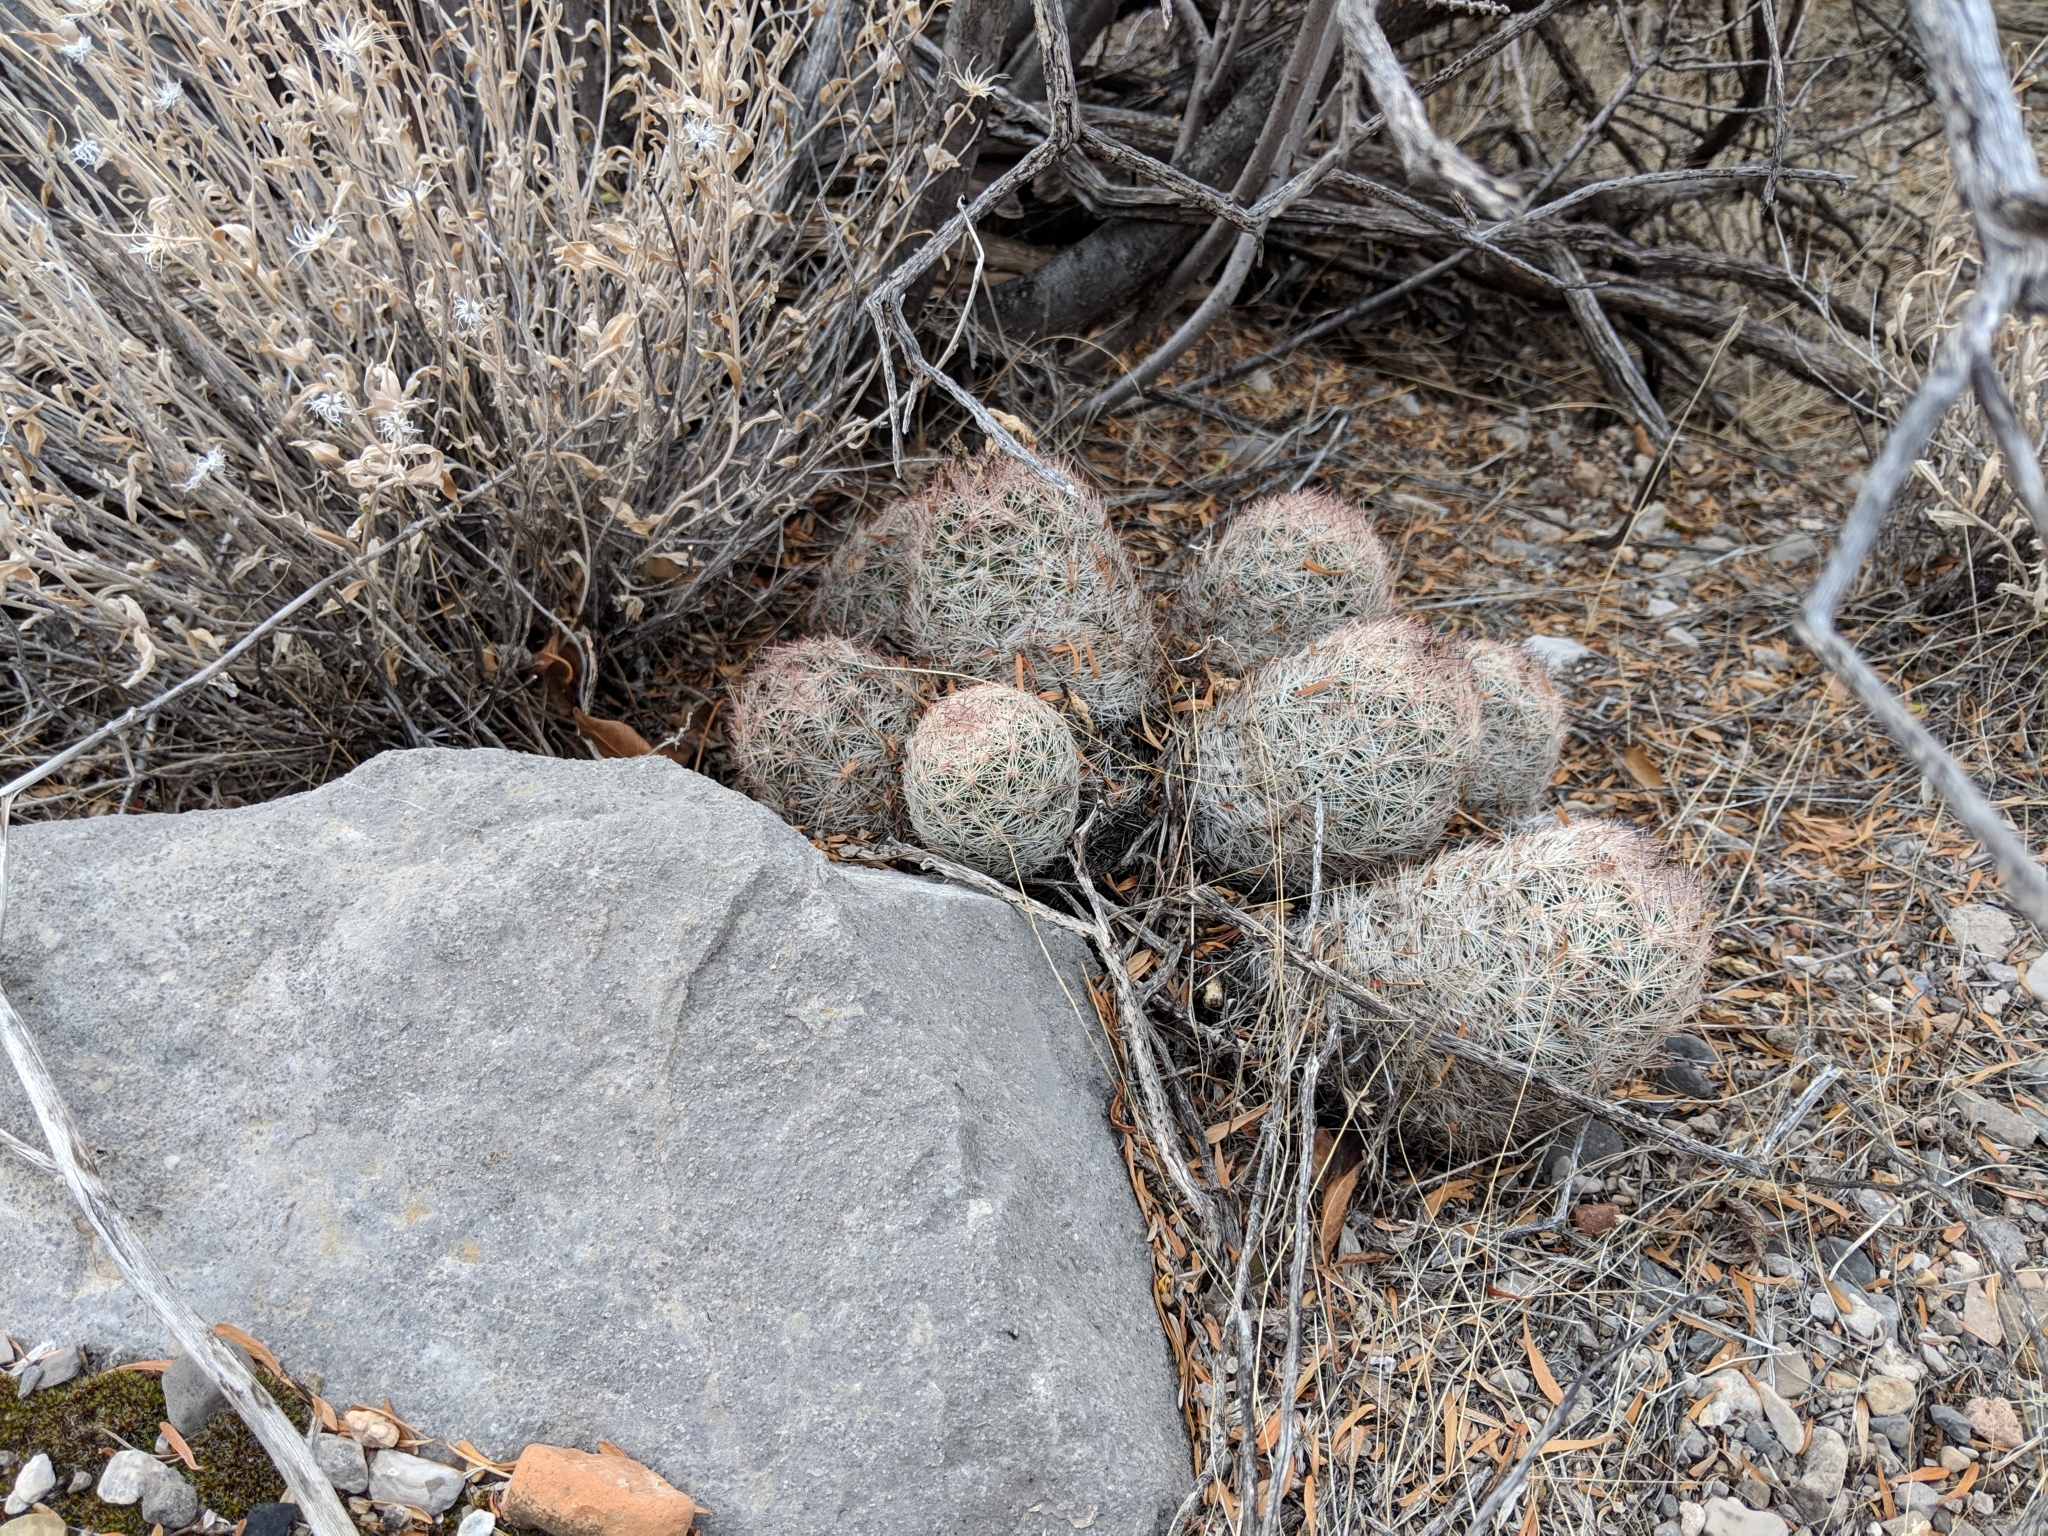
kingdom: Plantae
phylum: Tracheophyta
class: Magnoliopsida
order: Caryophyllales
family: Cactaceae
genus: Pelecyphora
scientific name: Pelecyphora dasyacantha
